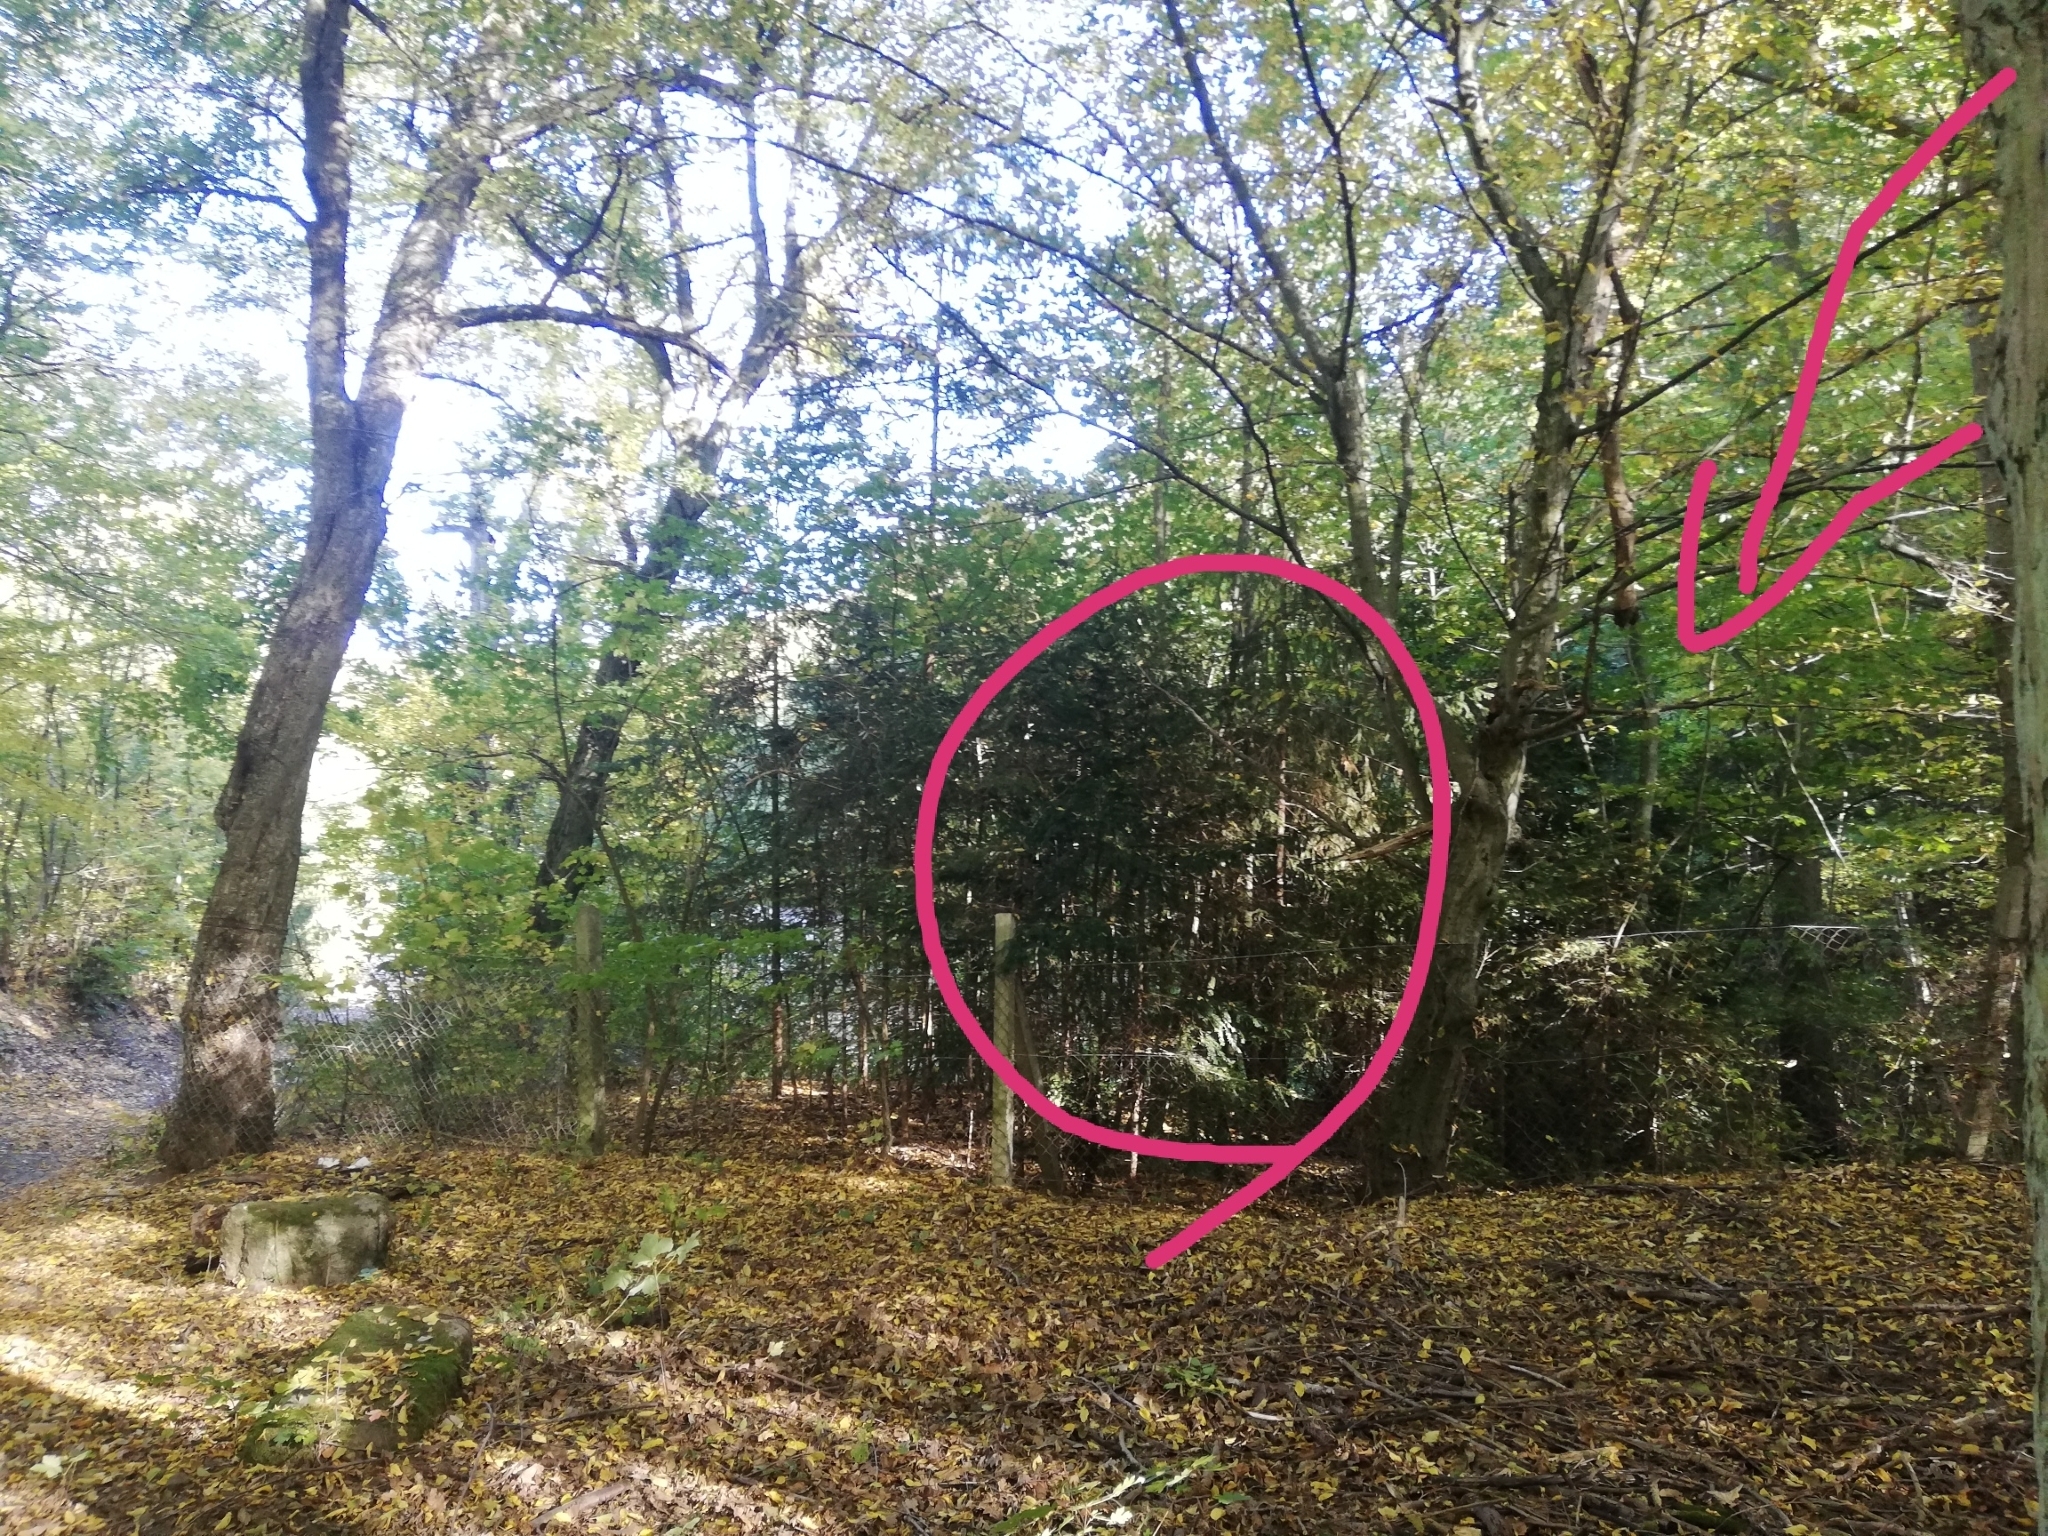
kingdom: Plantae
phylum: Tracheophyta
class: Pinopsida
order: Pinales
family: Taxaceae
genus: Taxus
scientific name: Taxus baccata
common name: Yew
